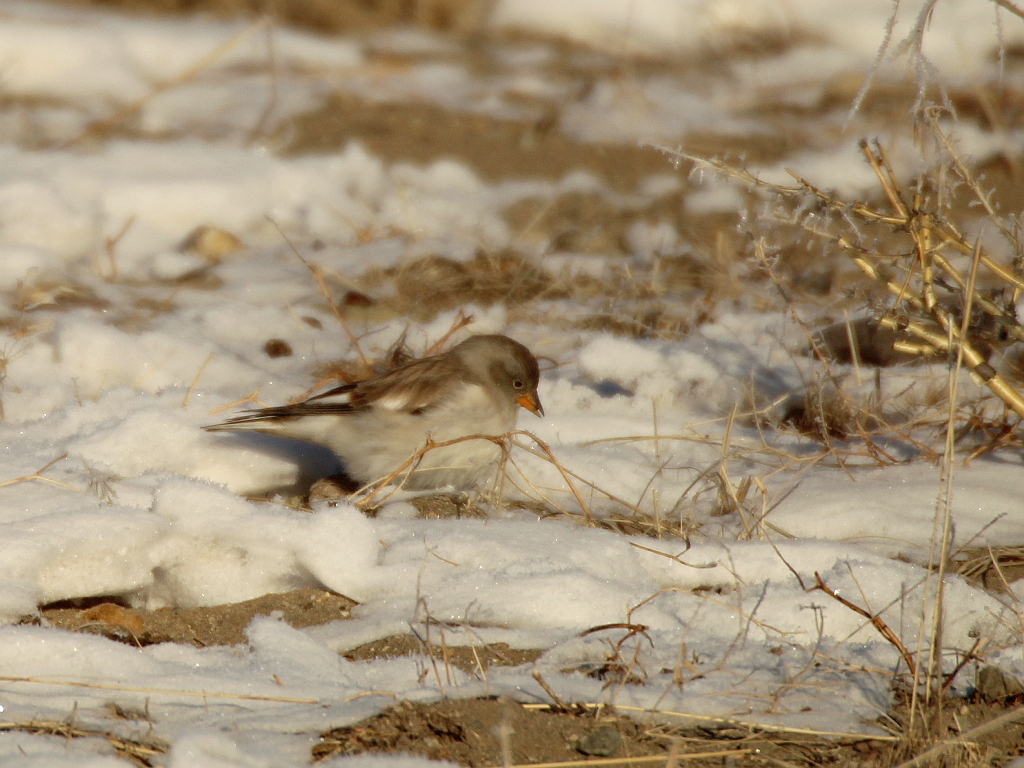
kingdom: Animalia
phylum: Chordata
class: Aves
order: Passeriformes
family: Passeridae
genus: Montifringilla
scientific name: Montifringilla nivalis
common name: White-winged snowfinch
